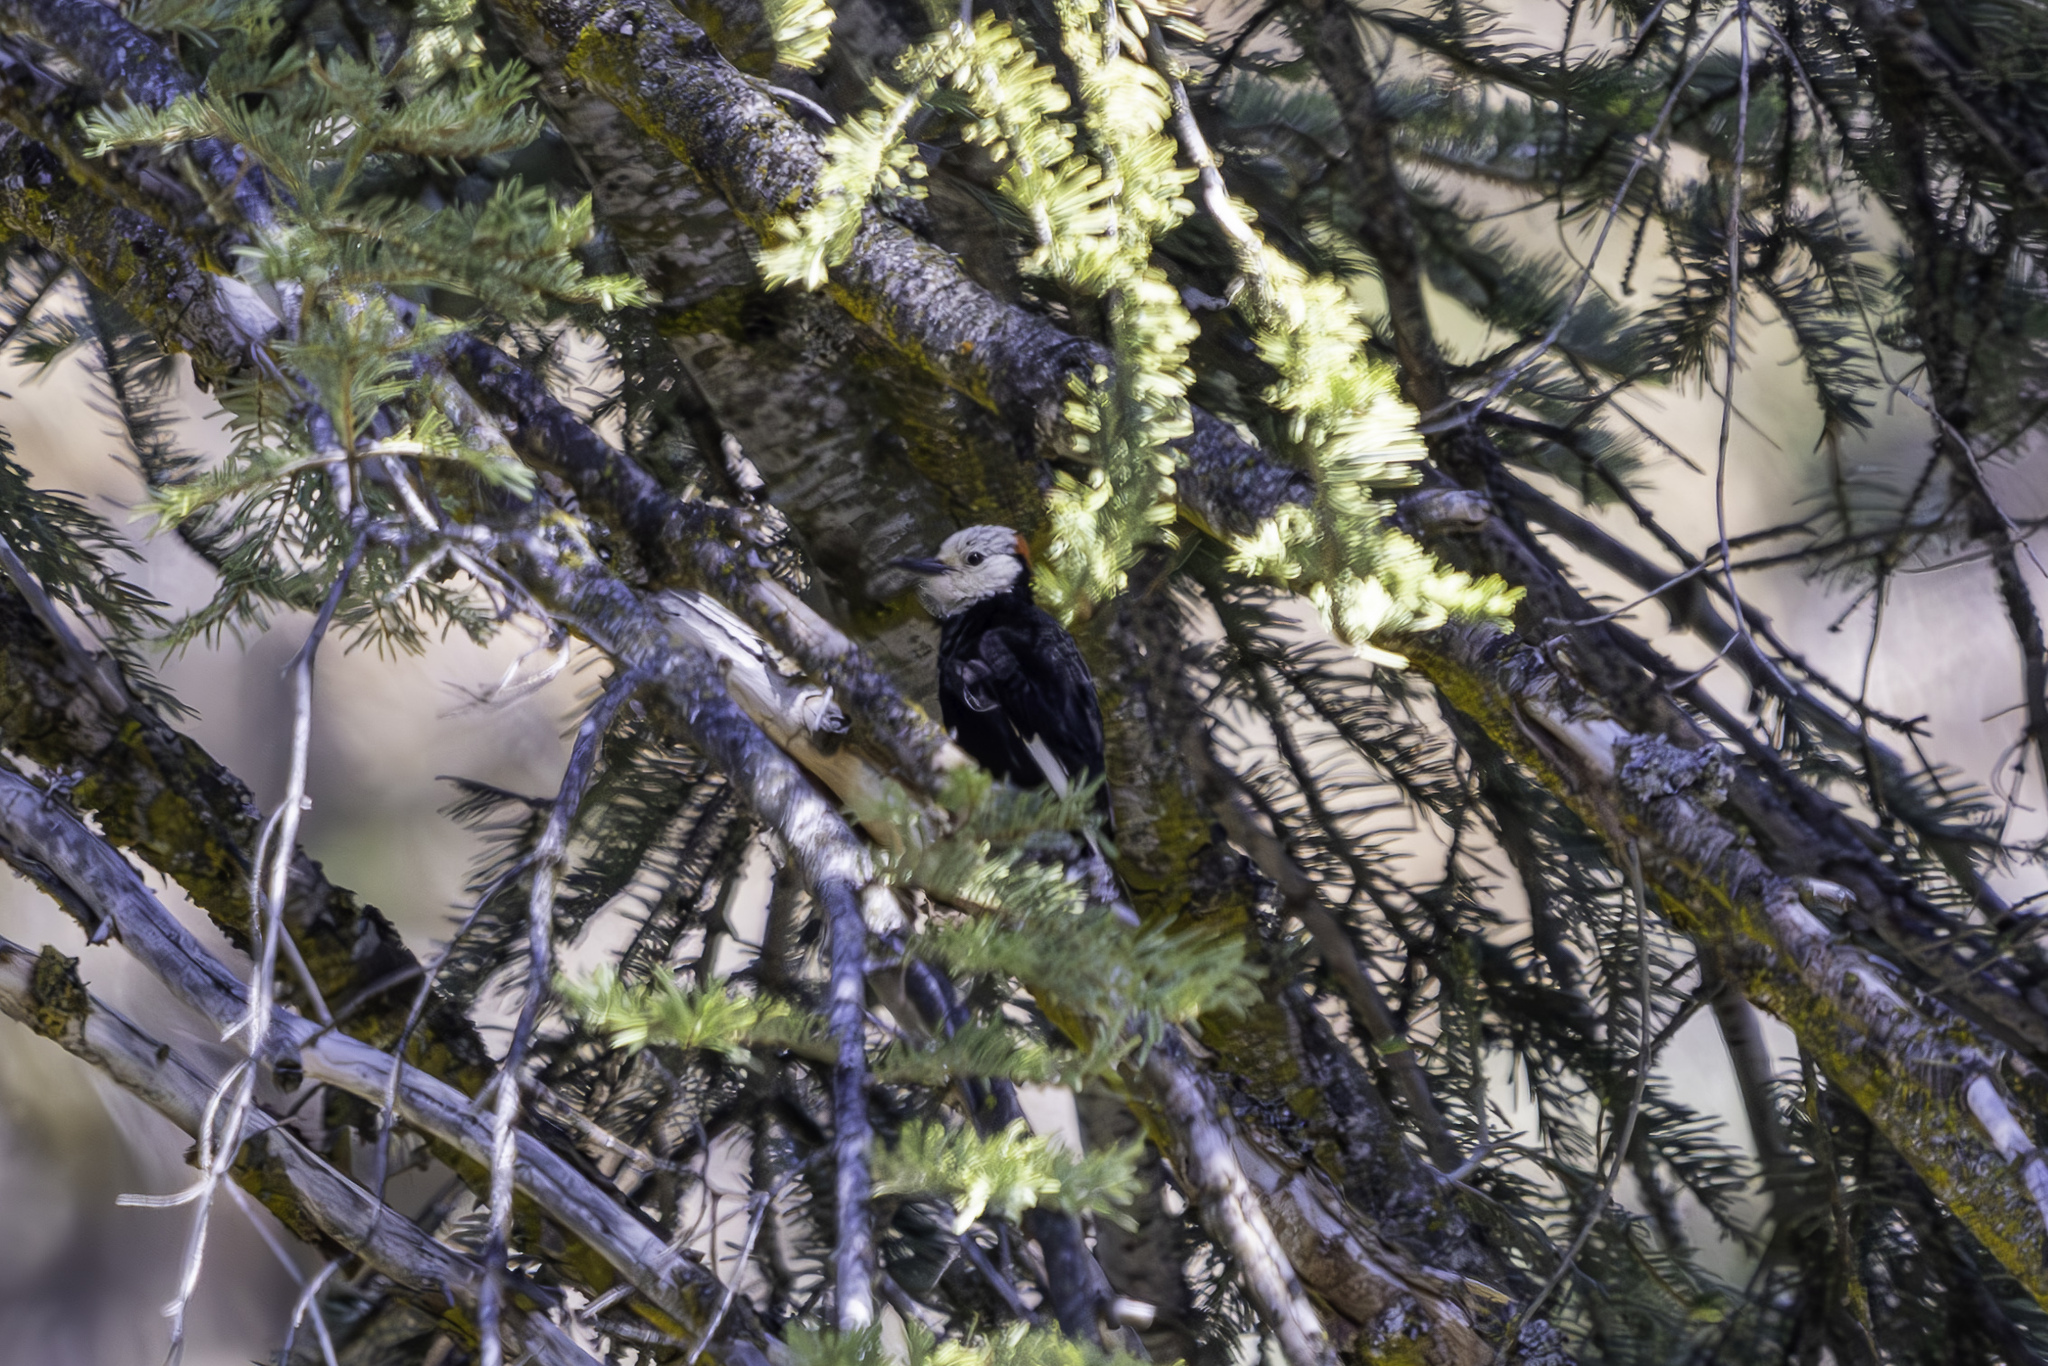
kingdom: Animalia
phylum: Chordata
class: Aves
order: Piciformes
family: Picidae
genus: Leuconotopicus
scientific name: Leuconotopicus albolarvatus
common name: White-headed woodpecker
